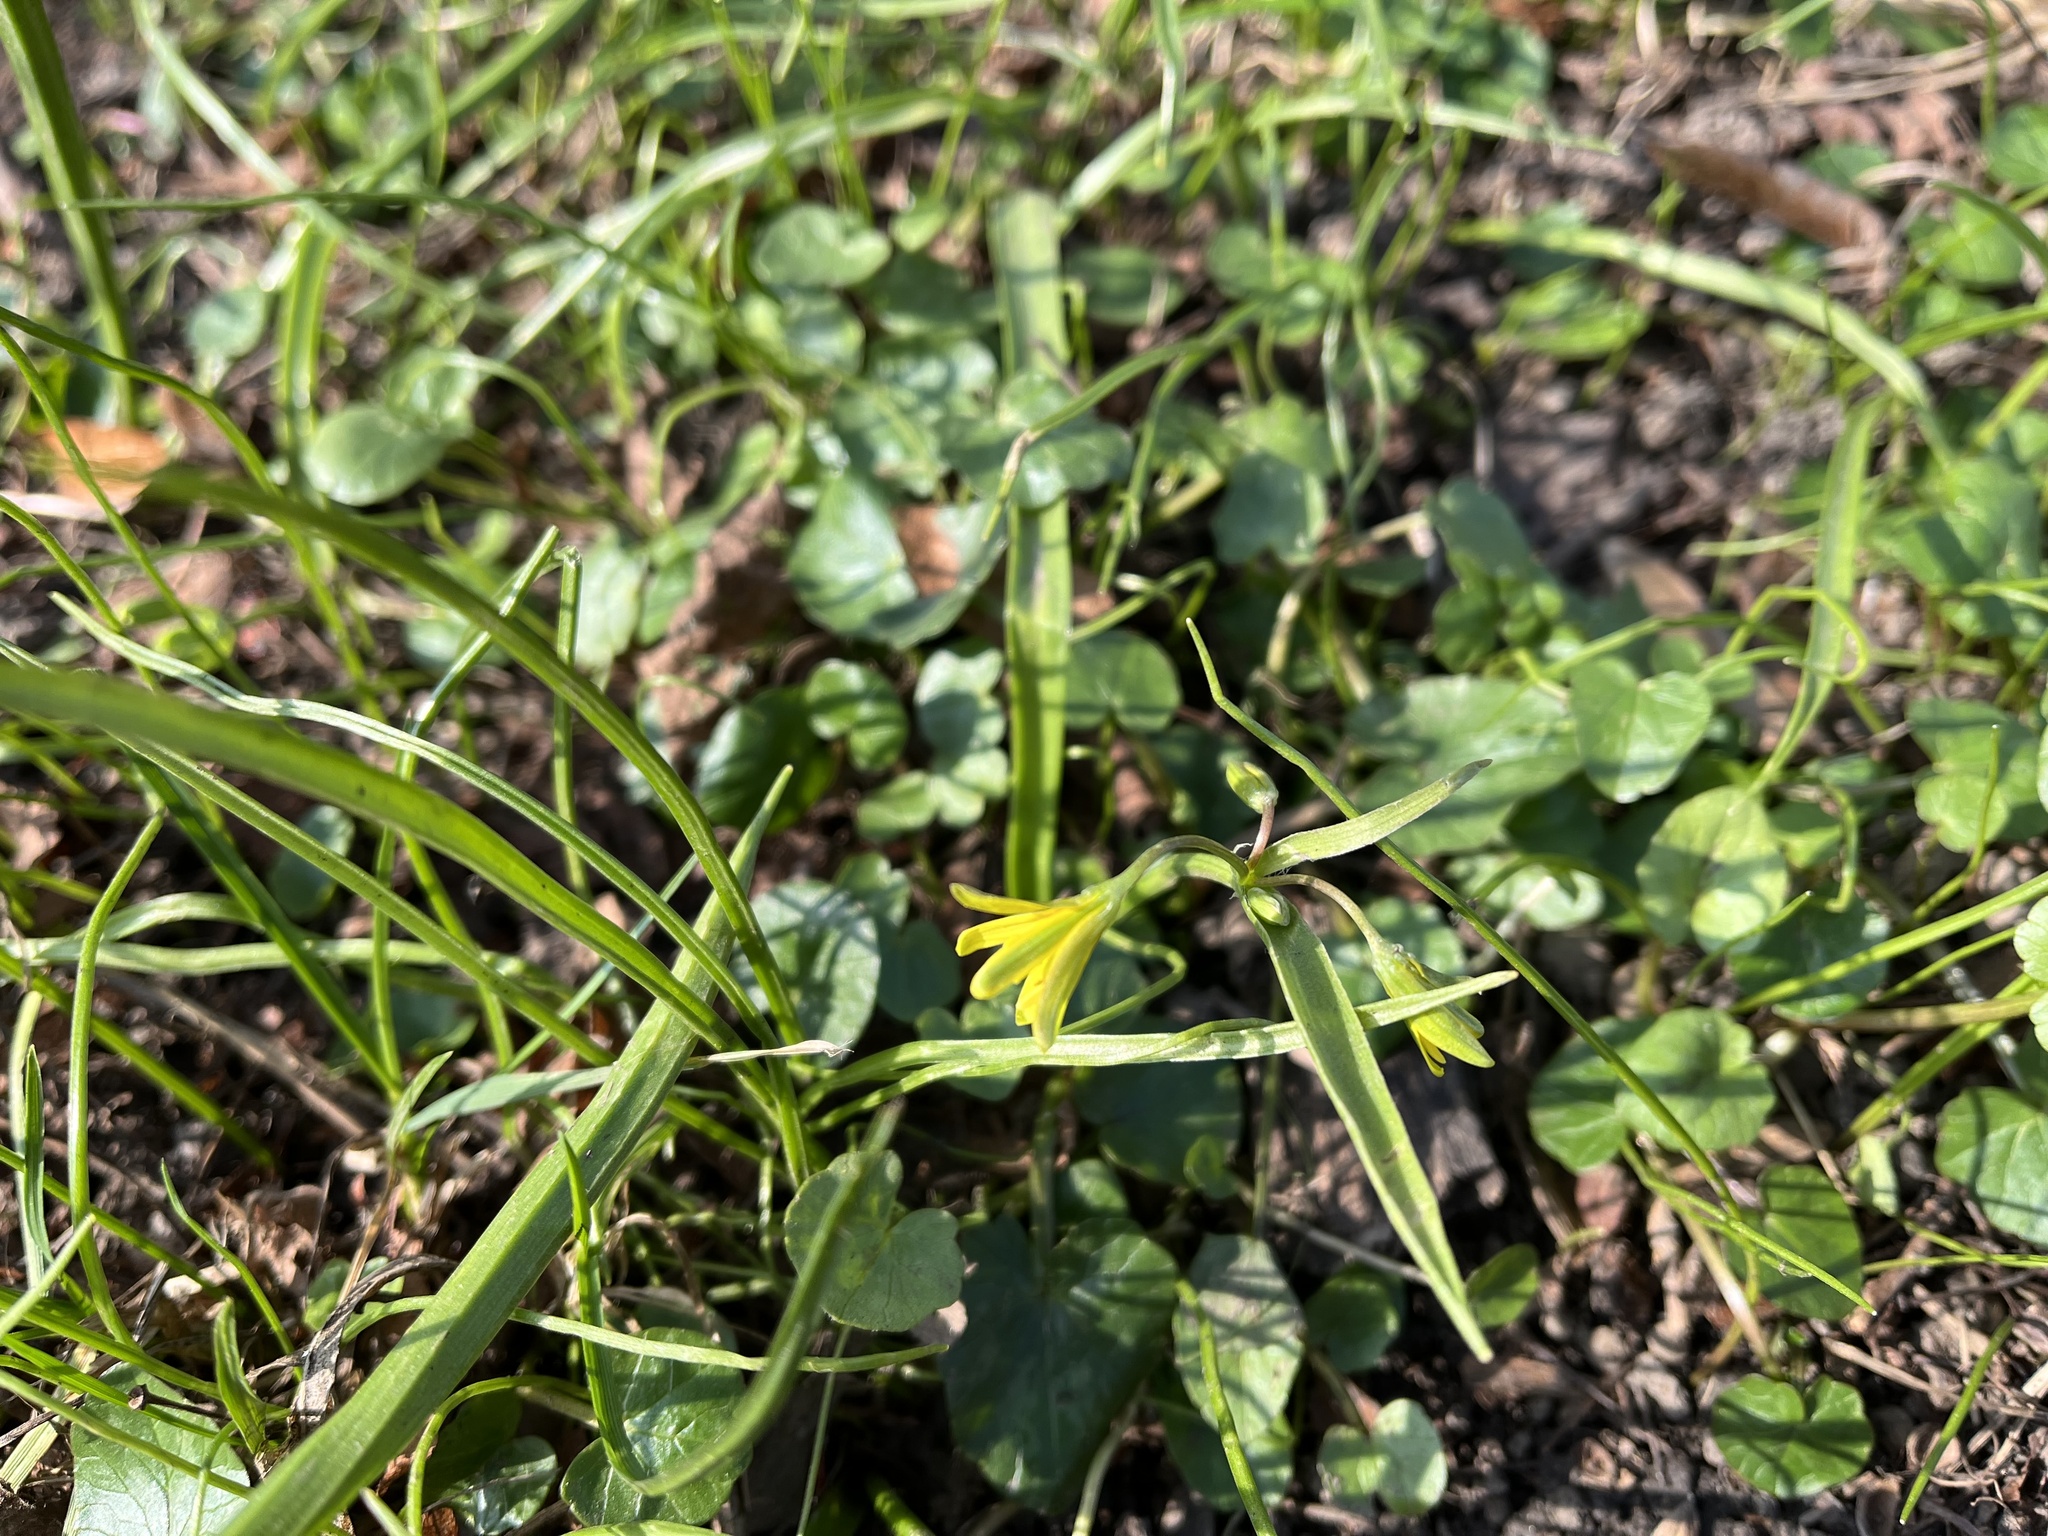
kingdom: Plantae
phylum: Tracheophyta
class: Liliopsida
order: Liliales
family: Liliaceae
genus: Gagea
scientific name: Gagea lutea
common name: Yellow star-of-bethlehem
